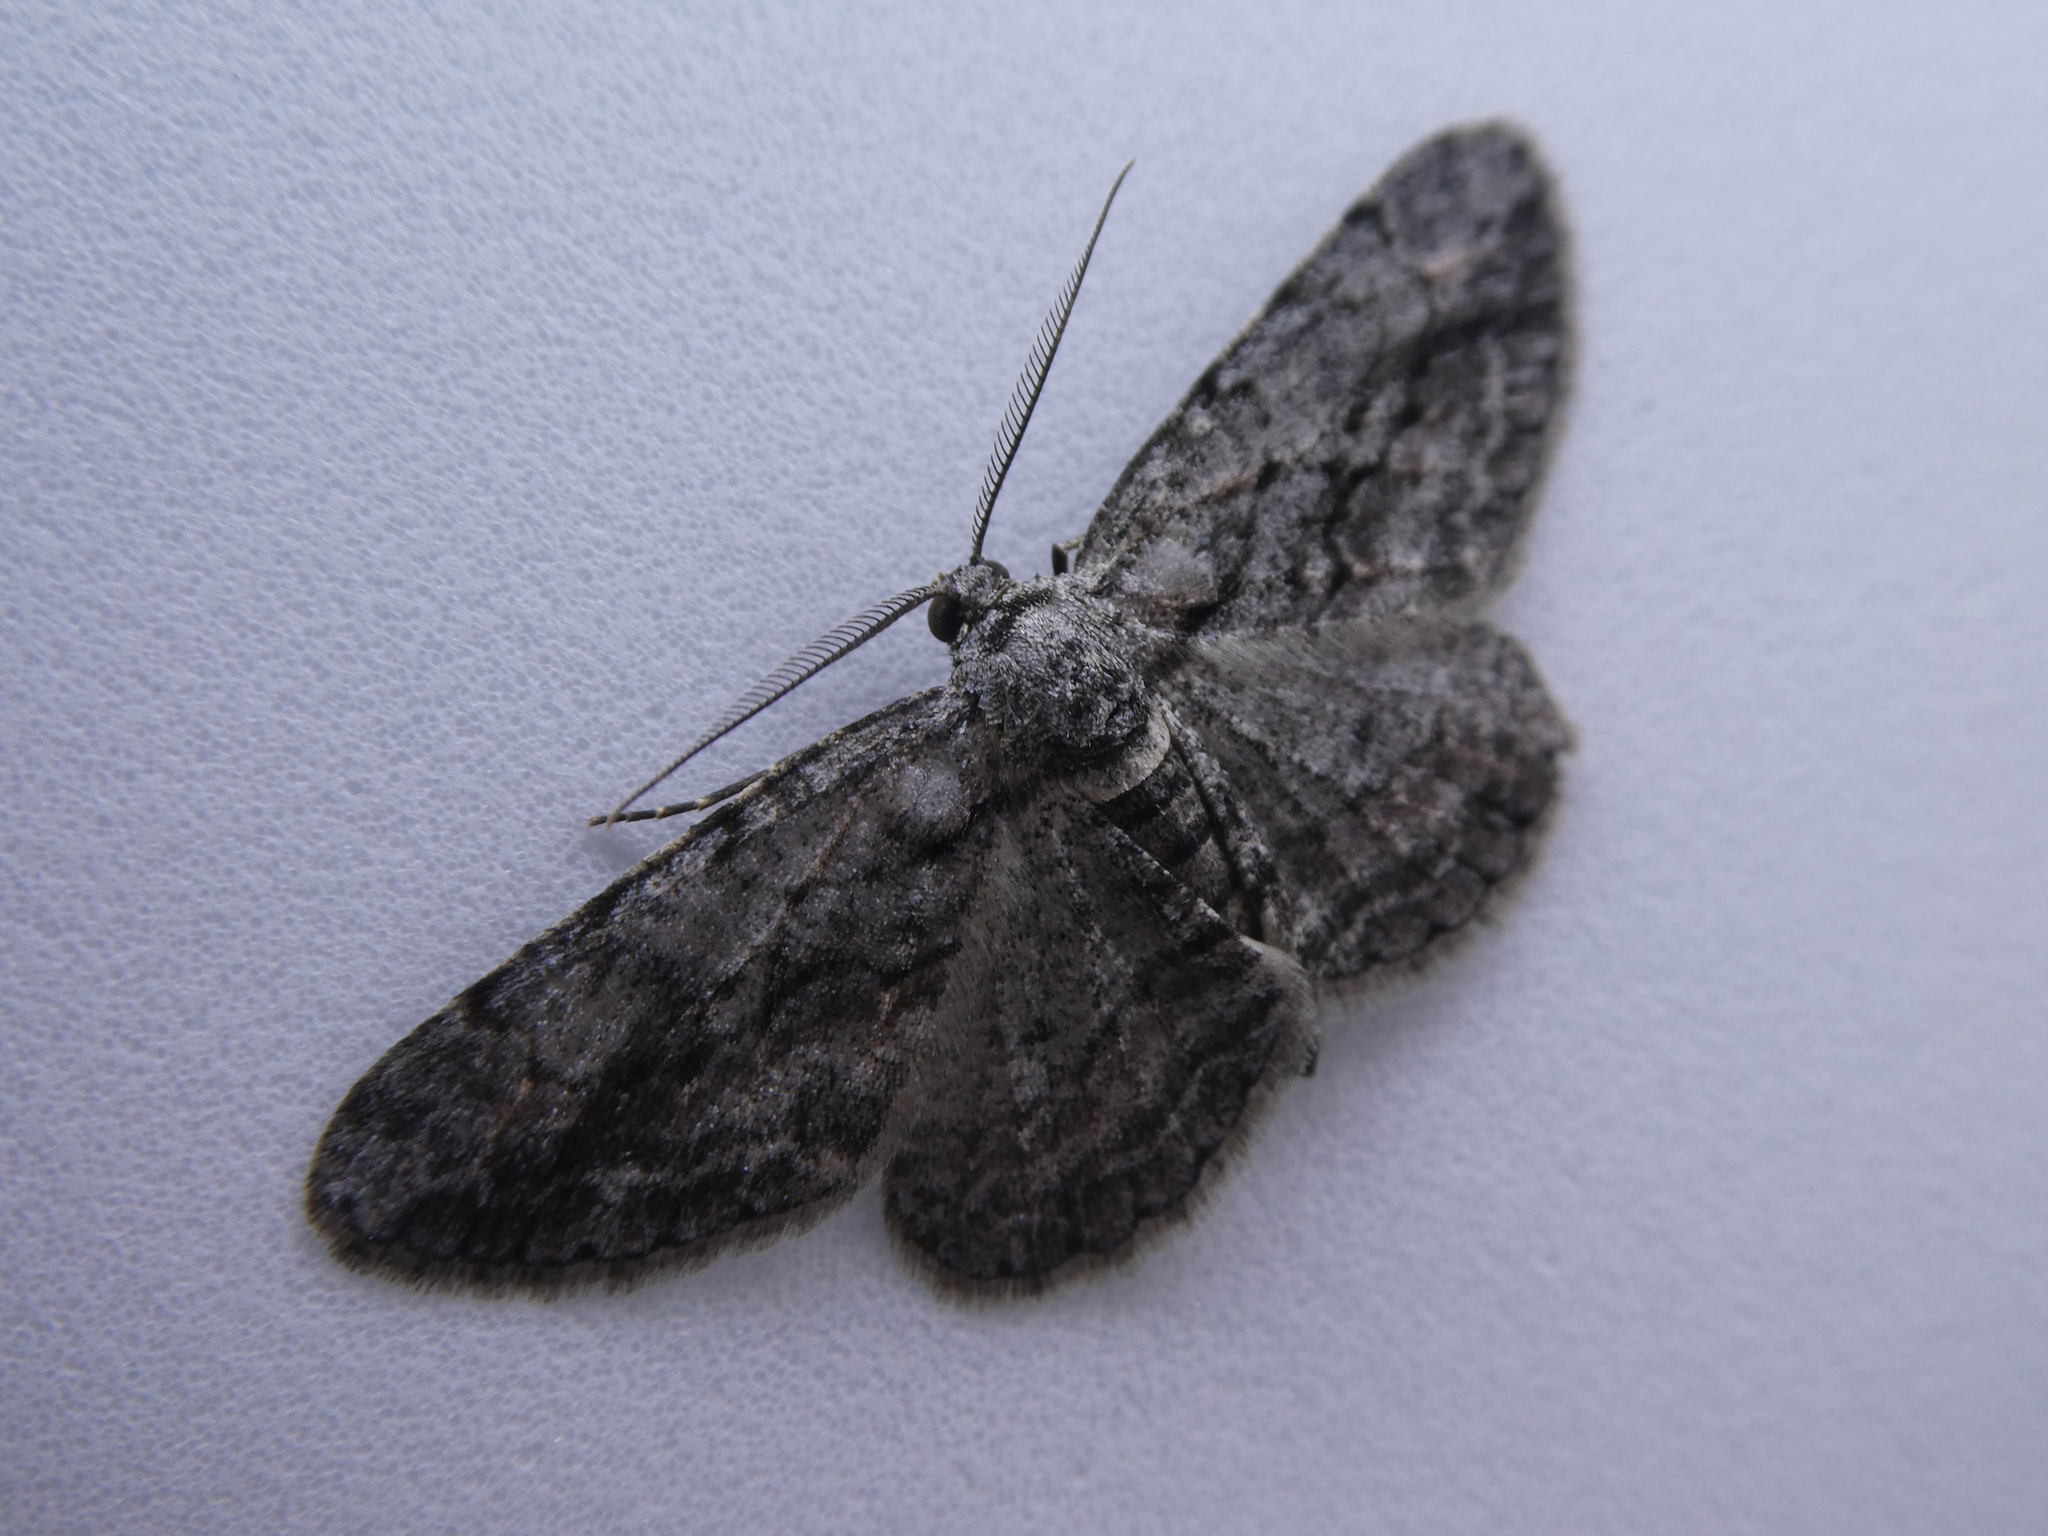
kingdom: Animalia
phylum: Arthropoda
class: Insecta
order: Lepidoptera
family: Geometridae
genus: Anavitrinella
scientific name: Anavitrinella pampinaria
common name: Common gray
